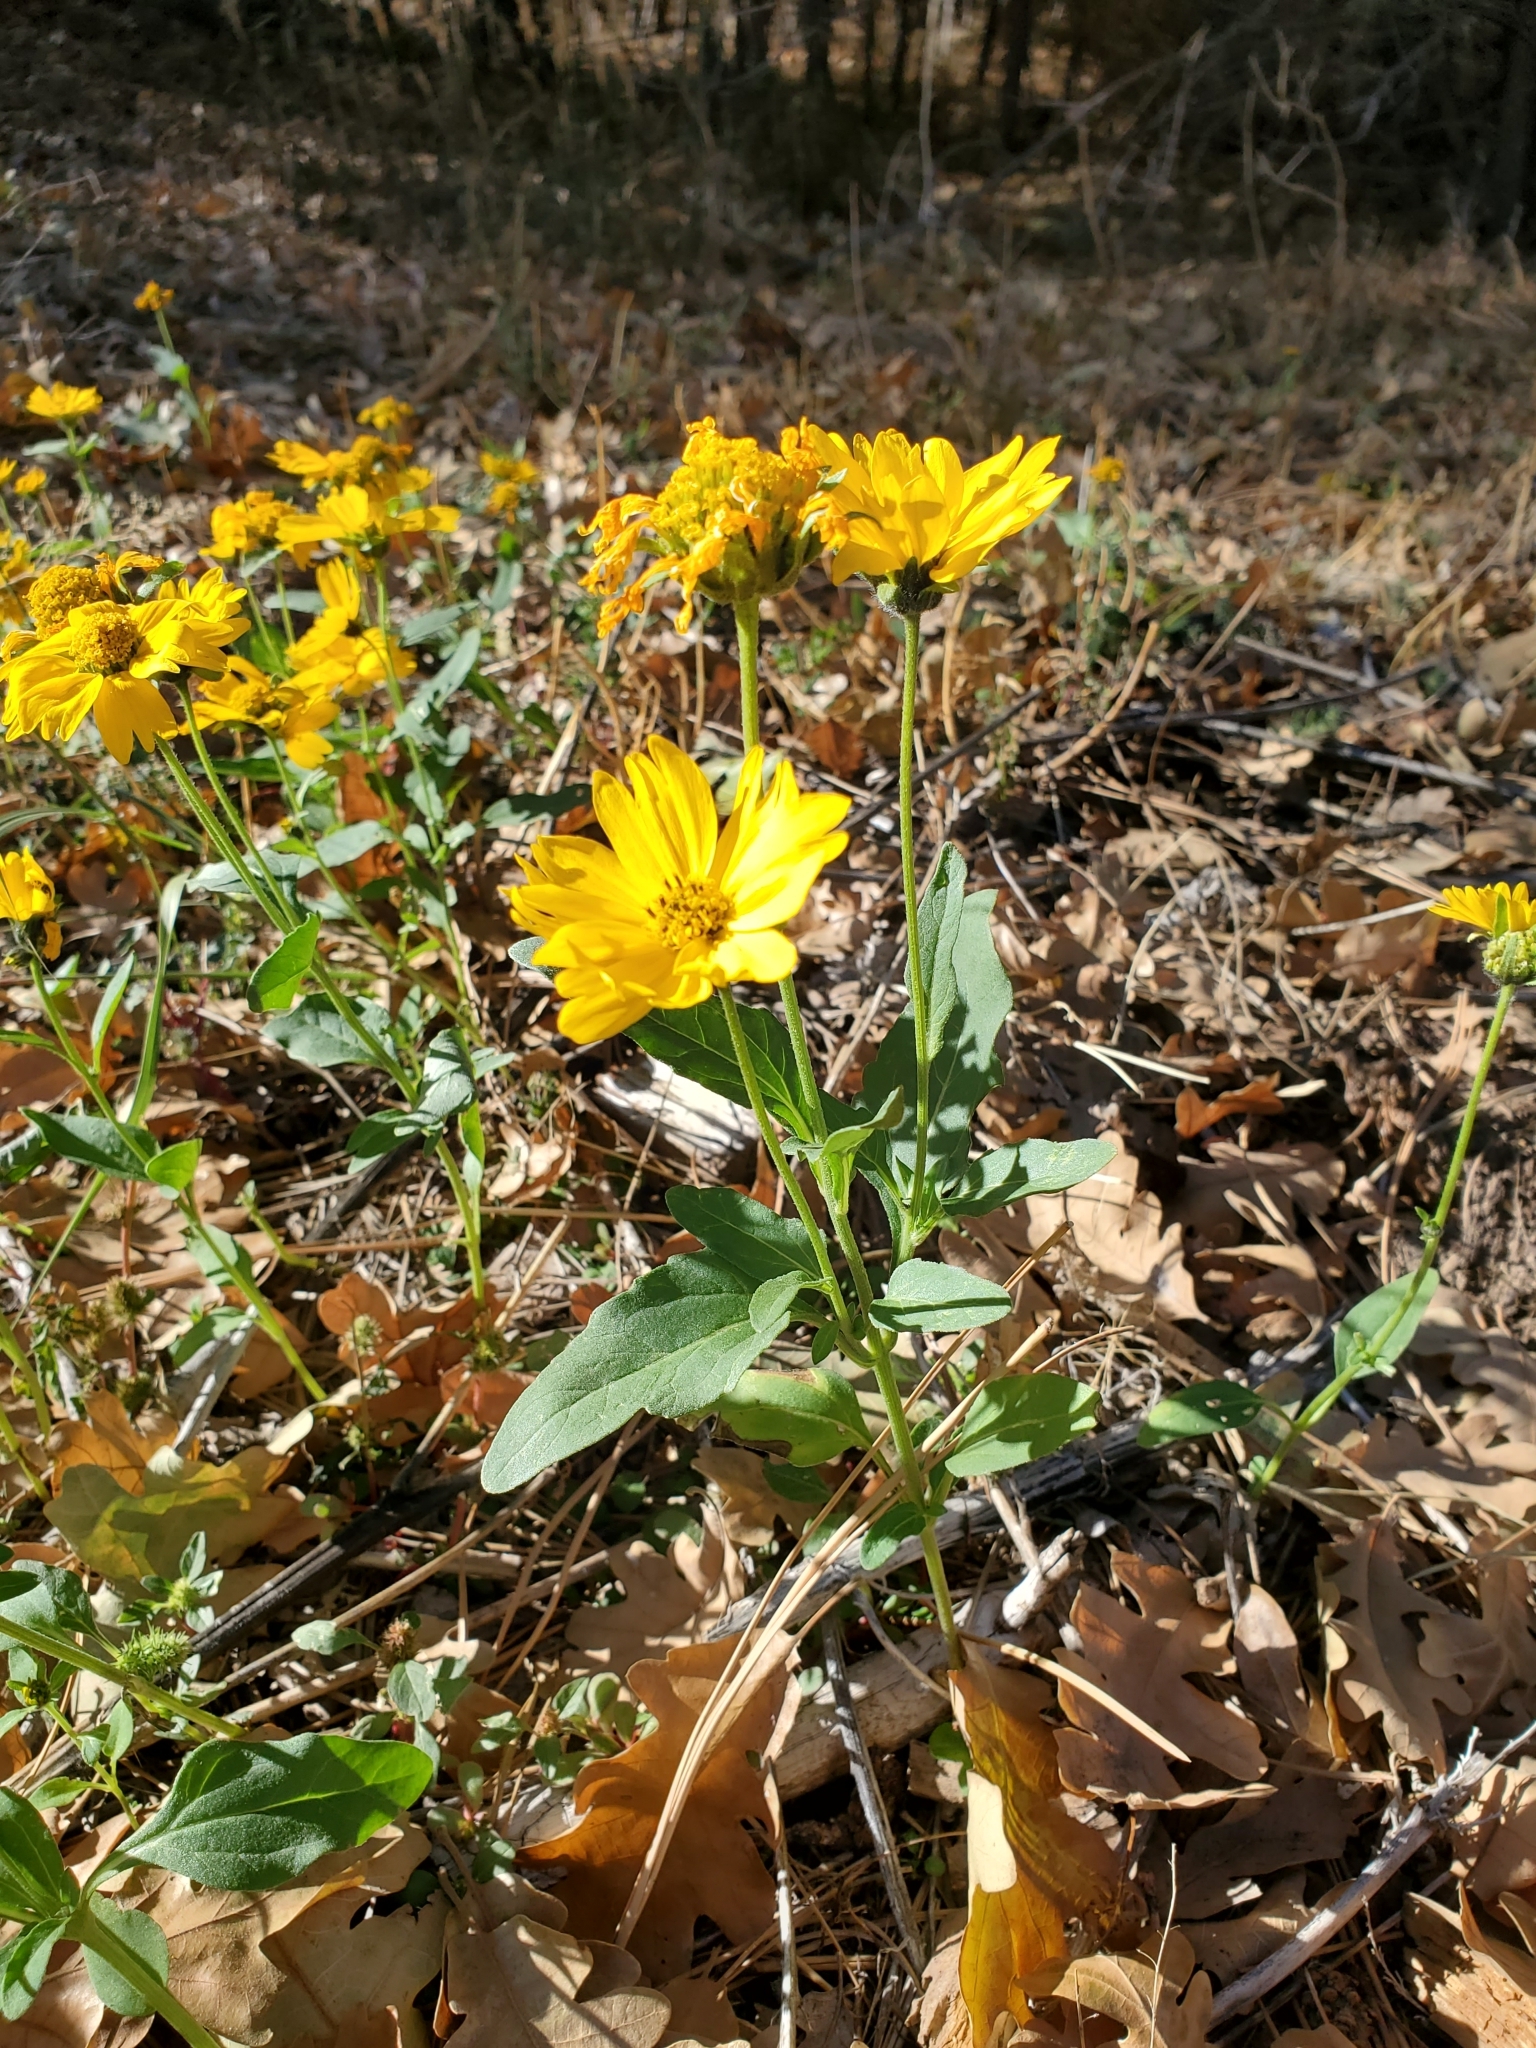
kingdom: Plantae
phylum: Tracheophyta
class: Magnoliopsida
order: Asterales
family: Asteraceae
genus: Verbesina
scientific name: Verbesina encelioides
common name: Golden crownbeard
